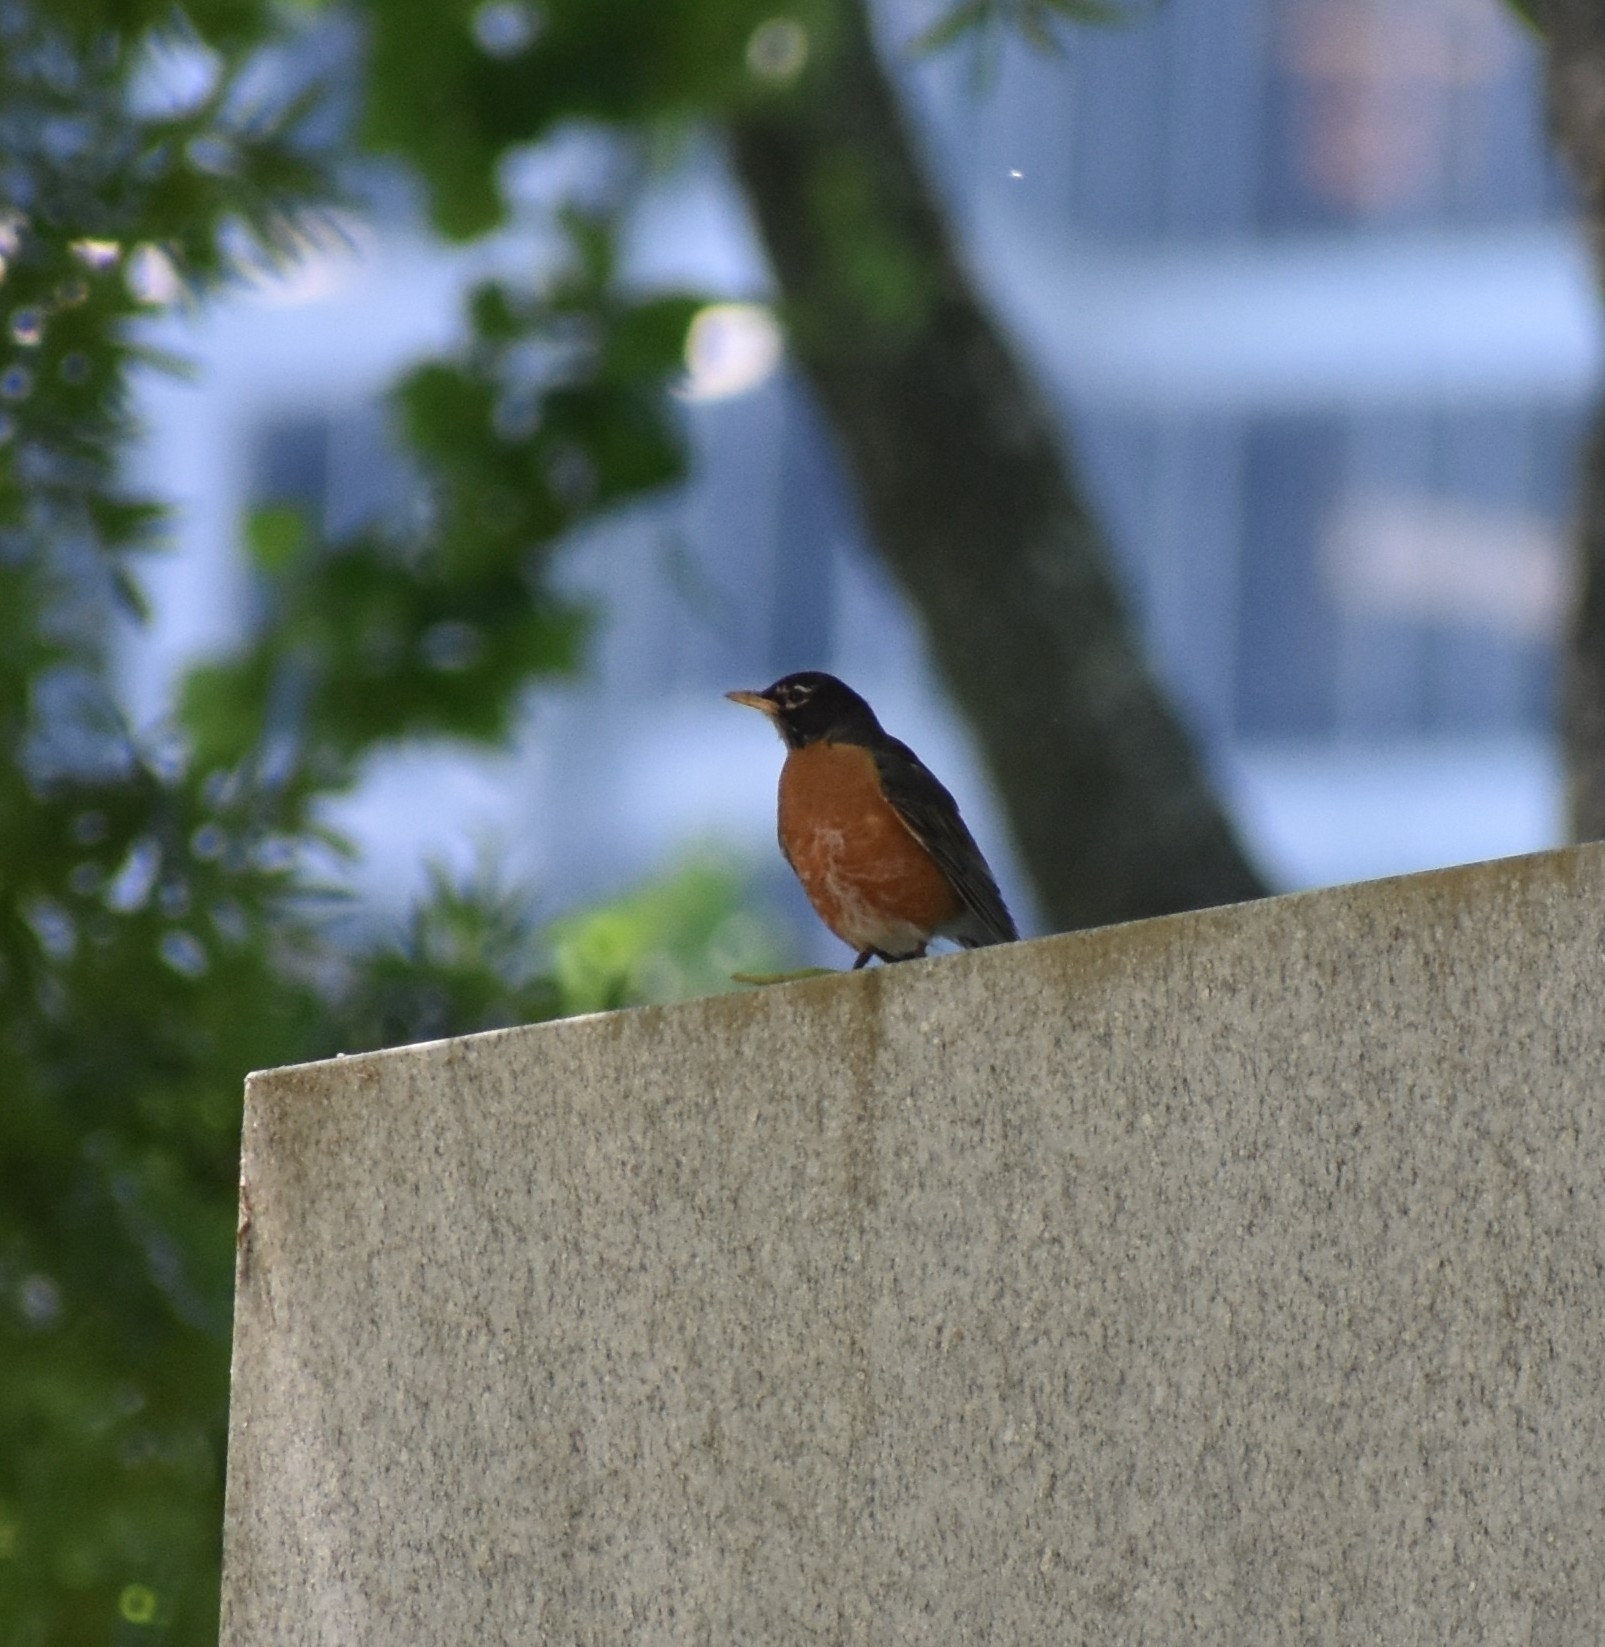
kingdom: Animalia
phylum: Chordata
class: Aves
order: Passeriformes
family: Turdidae
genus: Turdus
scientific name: Turdus migratorius
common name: American robin
